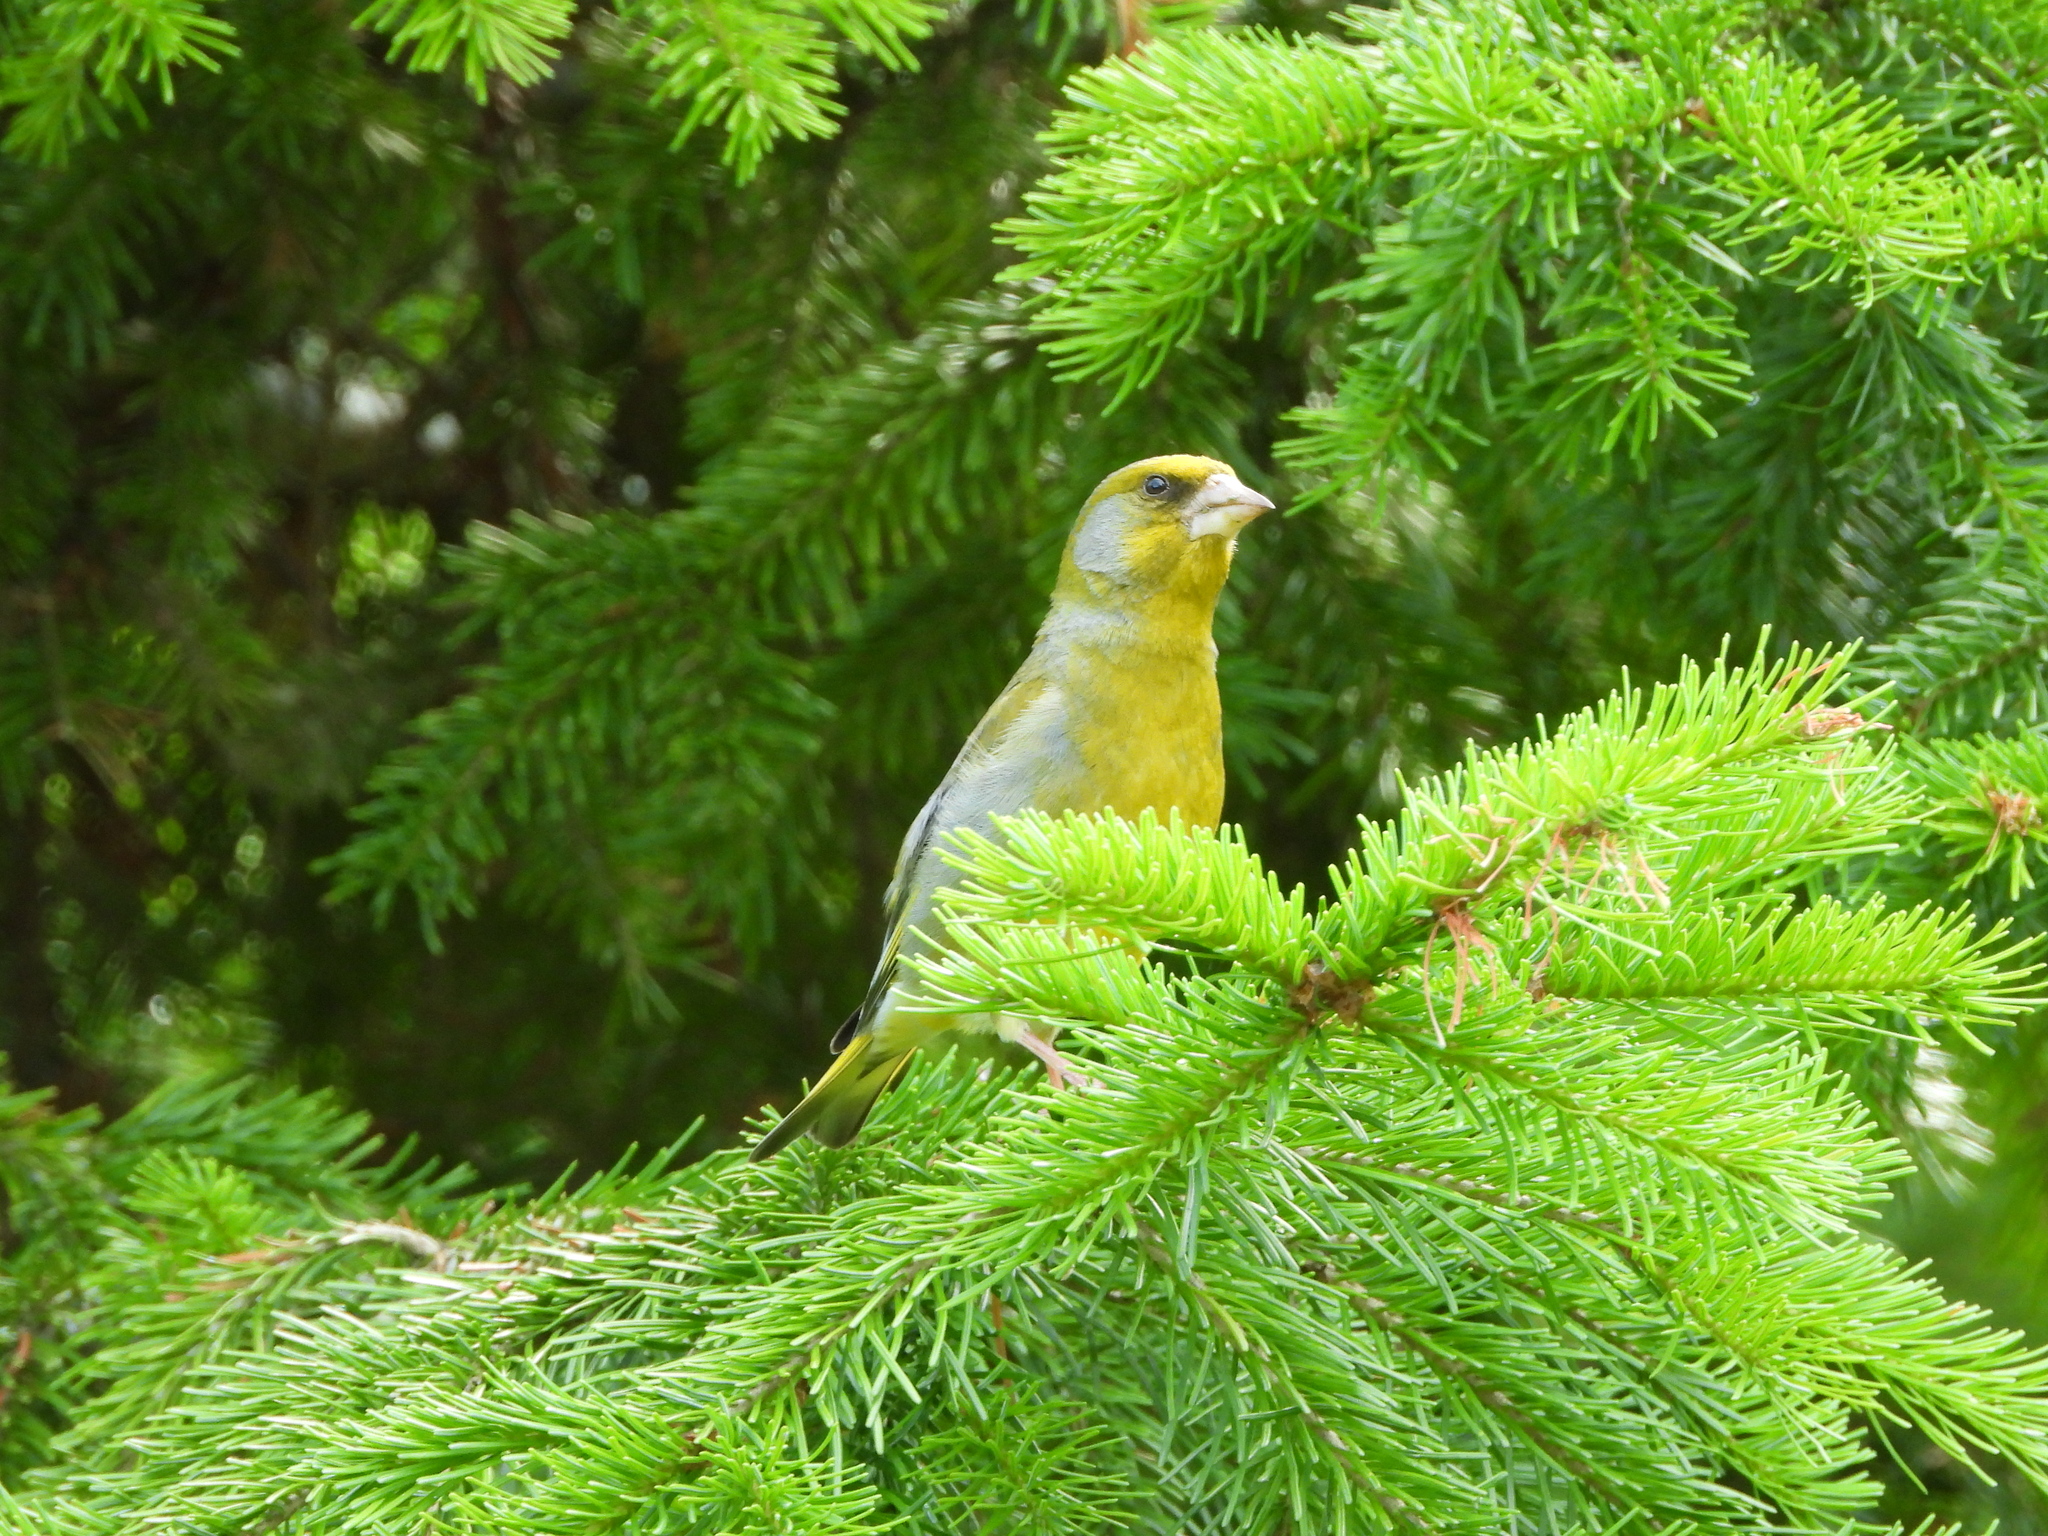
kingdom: Plantae
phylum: Tracheophyta
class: Liliopsida
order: Poales
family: Poaceae
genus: Chloris
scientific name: Chloris chloris
